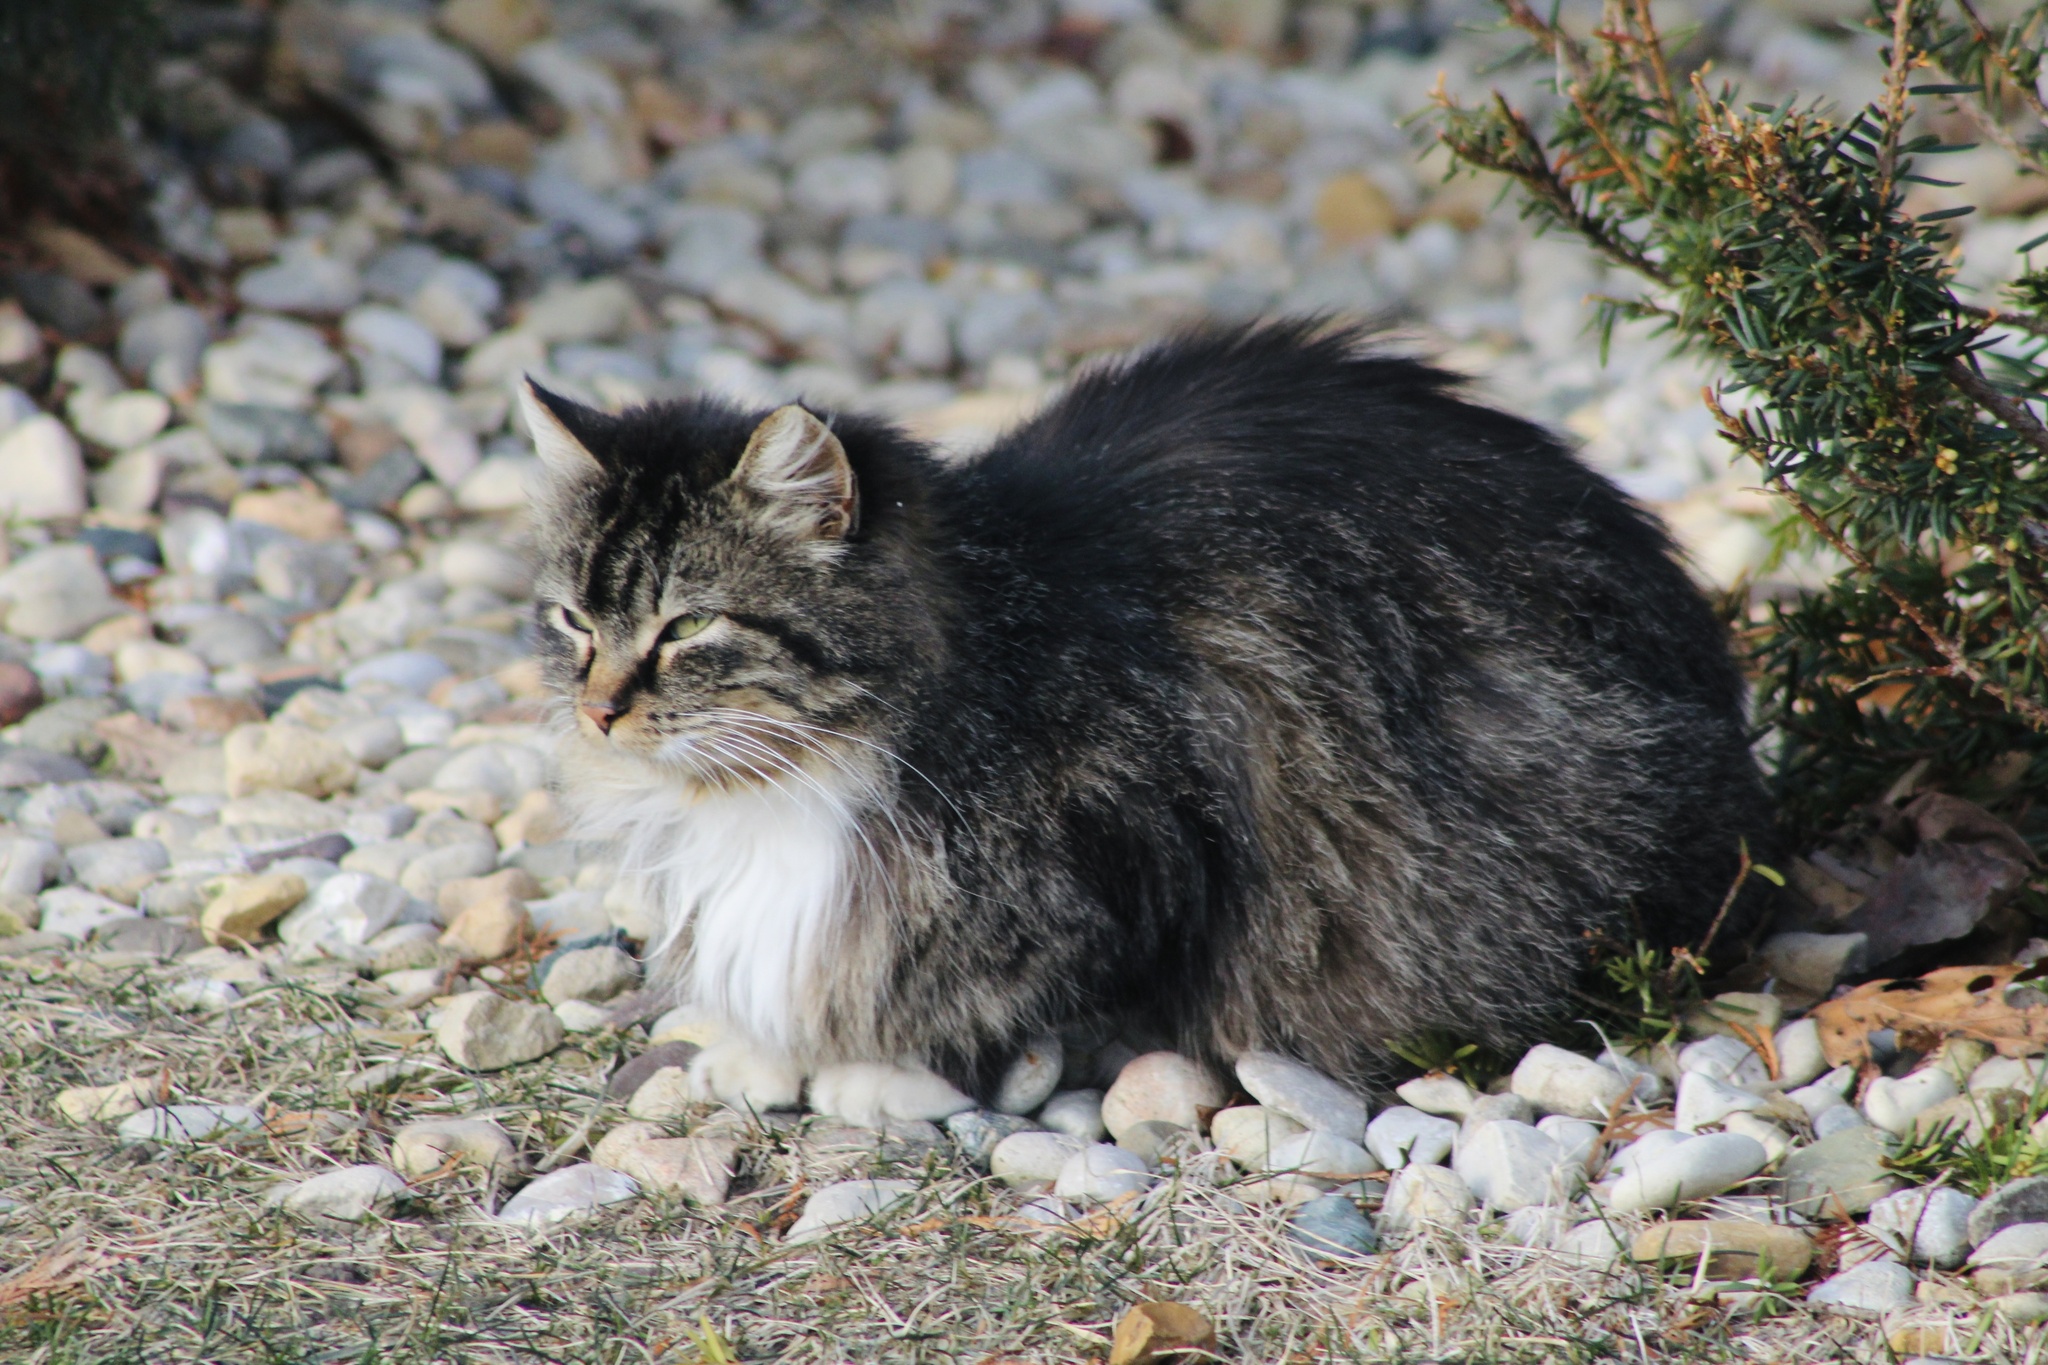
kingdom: Animalia
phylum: Chordata
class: Mammalia
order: Carnivora
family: Felidae
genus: Felis
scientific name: Felis catus
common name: Domestic cat
